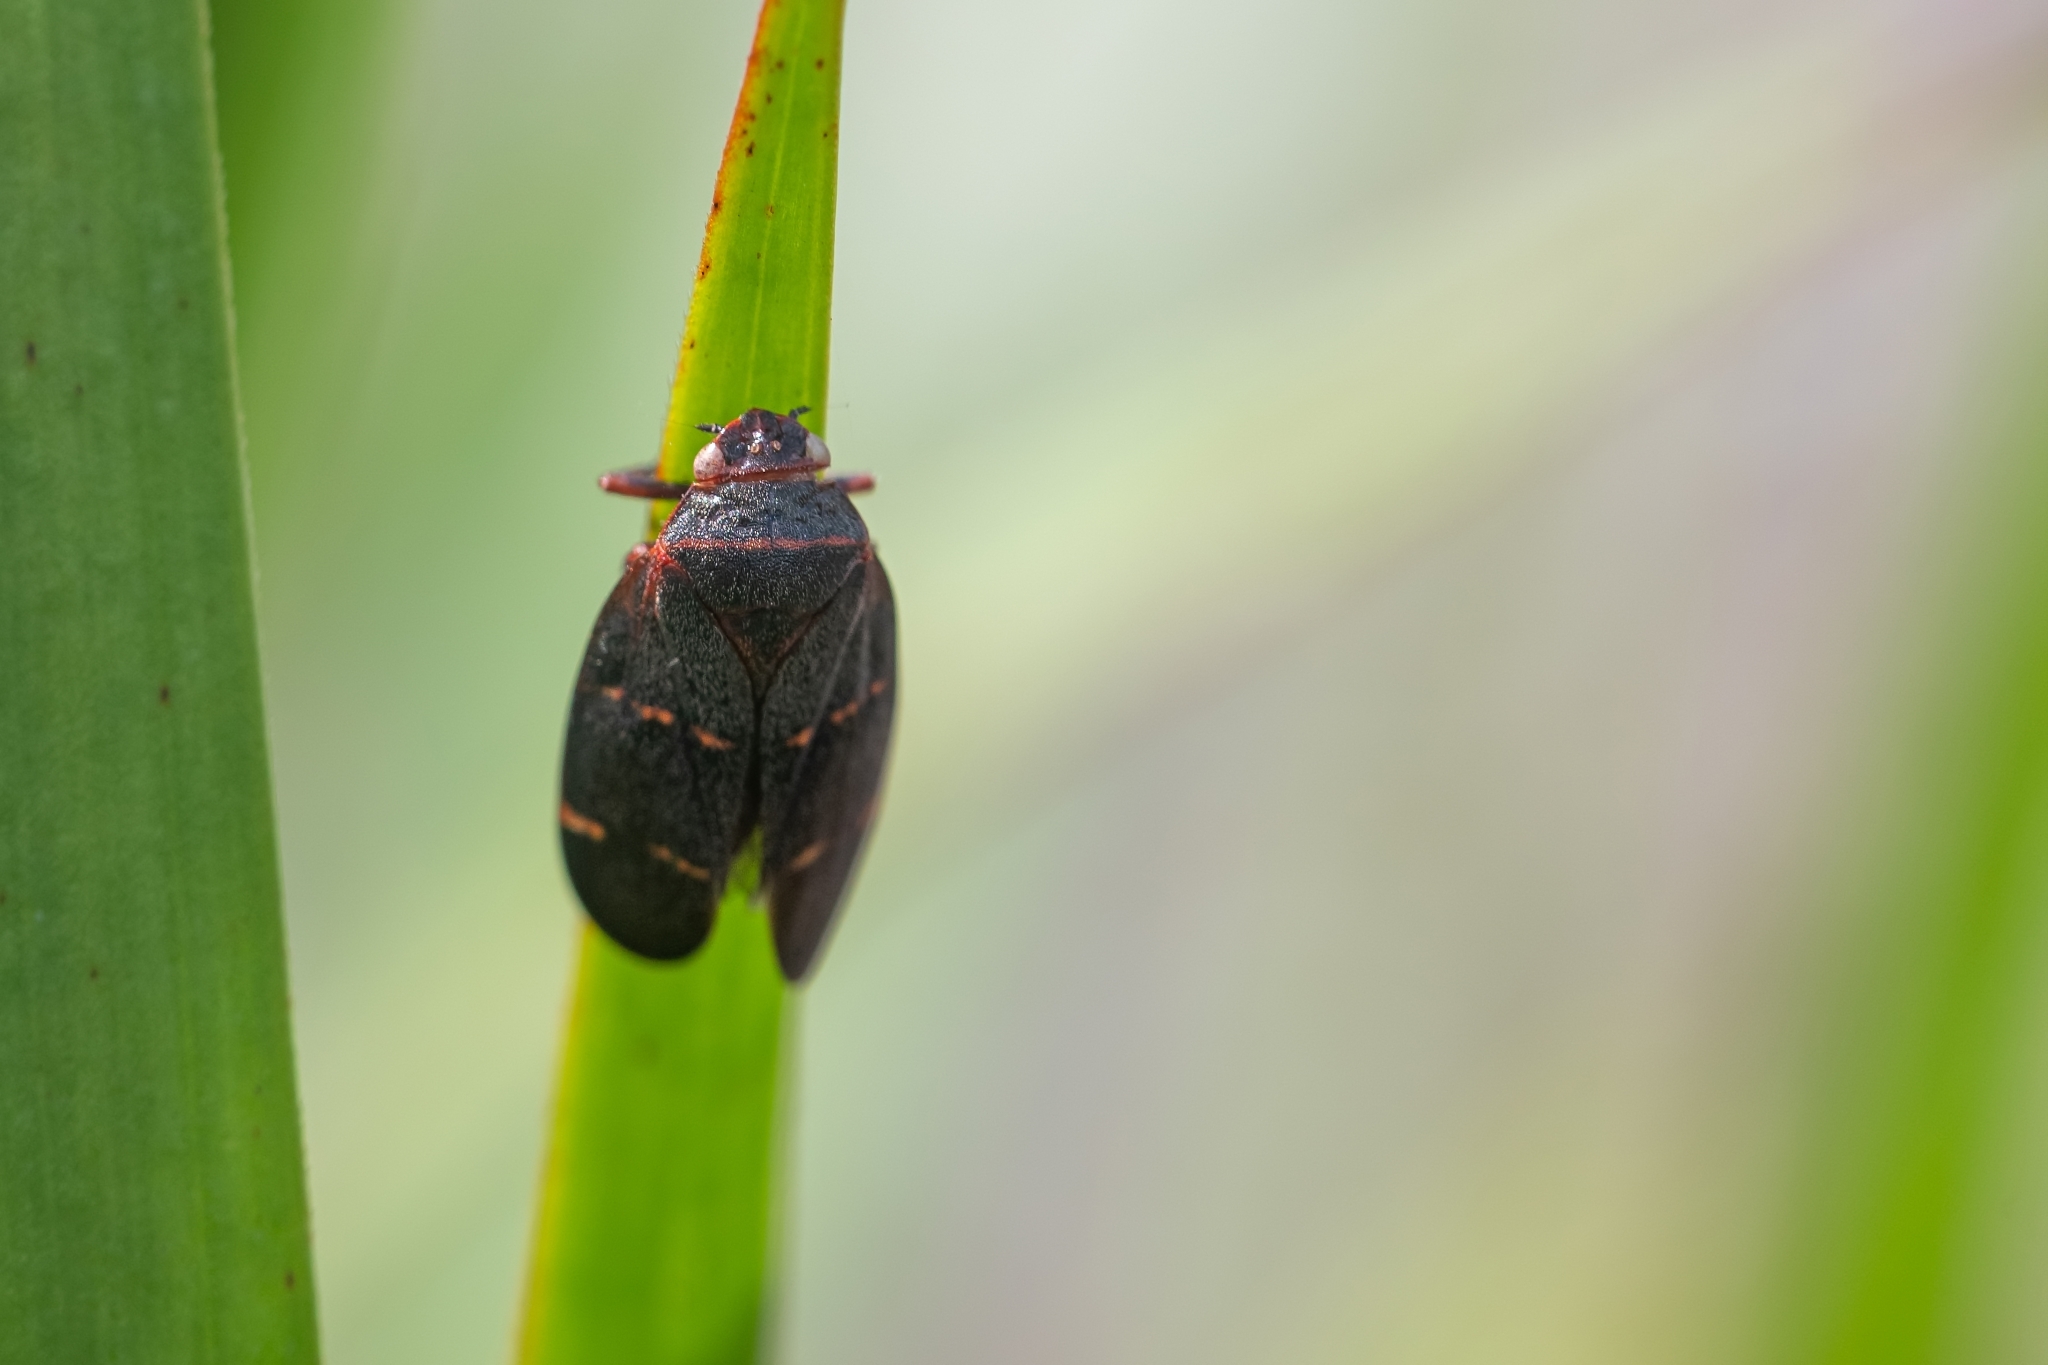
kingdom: Animalia
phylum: Arthropoda
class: Insecta
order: Hemiptera
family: Cercopidae
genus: Prosapia
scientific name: Prosapia bicincta
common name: Twolined spittlebug
